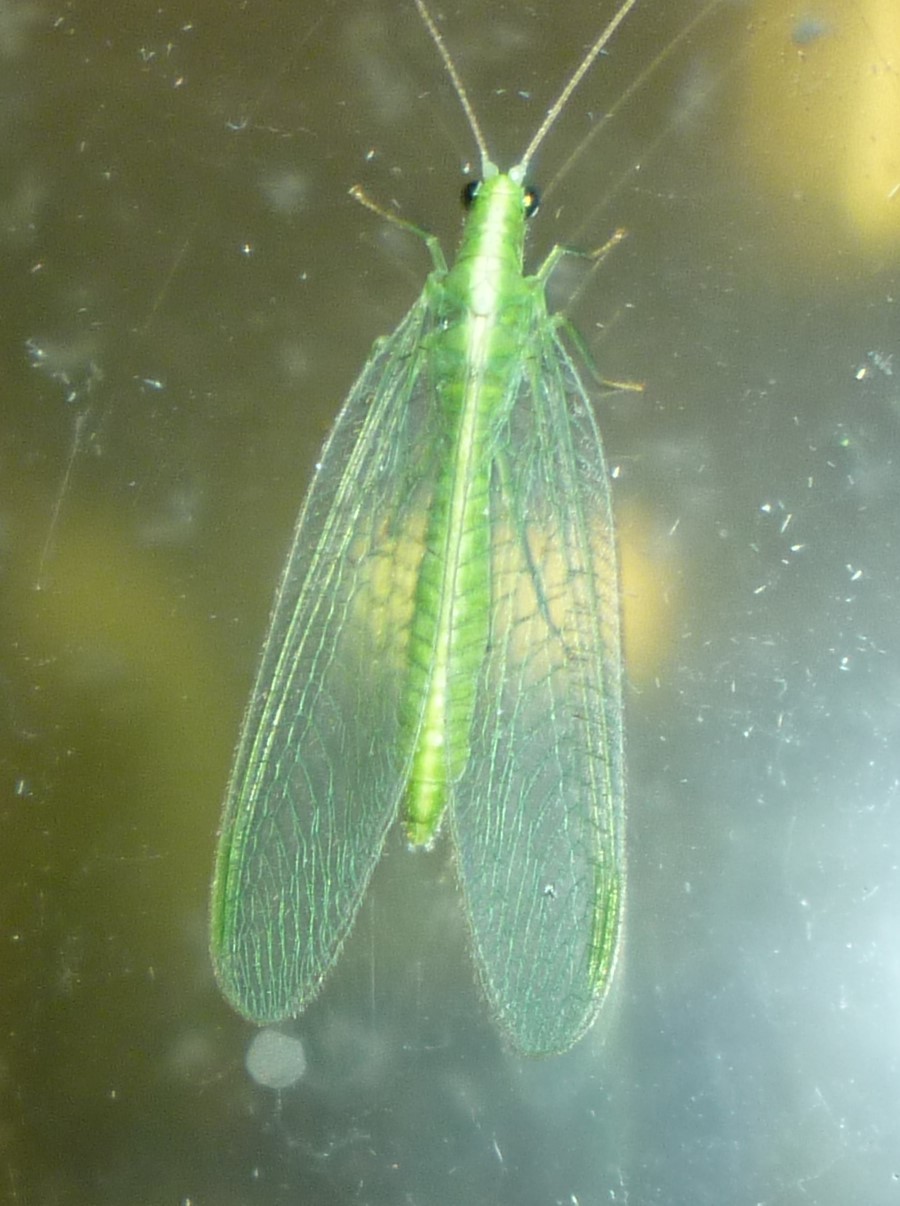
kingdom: Animalia
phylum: Arthropoda
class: Insecta
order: Neuroptera
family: Chrysopidae
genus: Chrysoperla
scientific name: Chrysoperla
